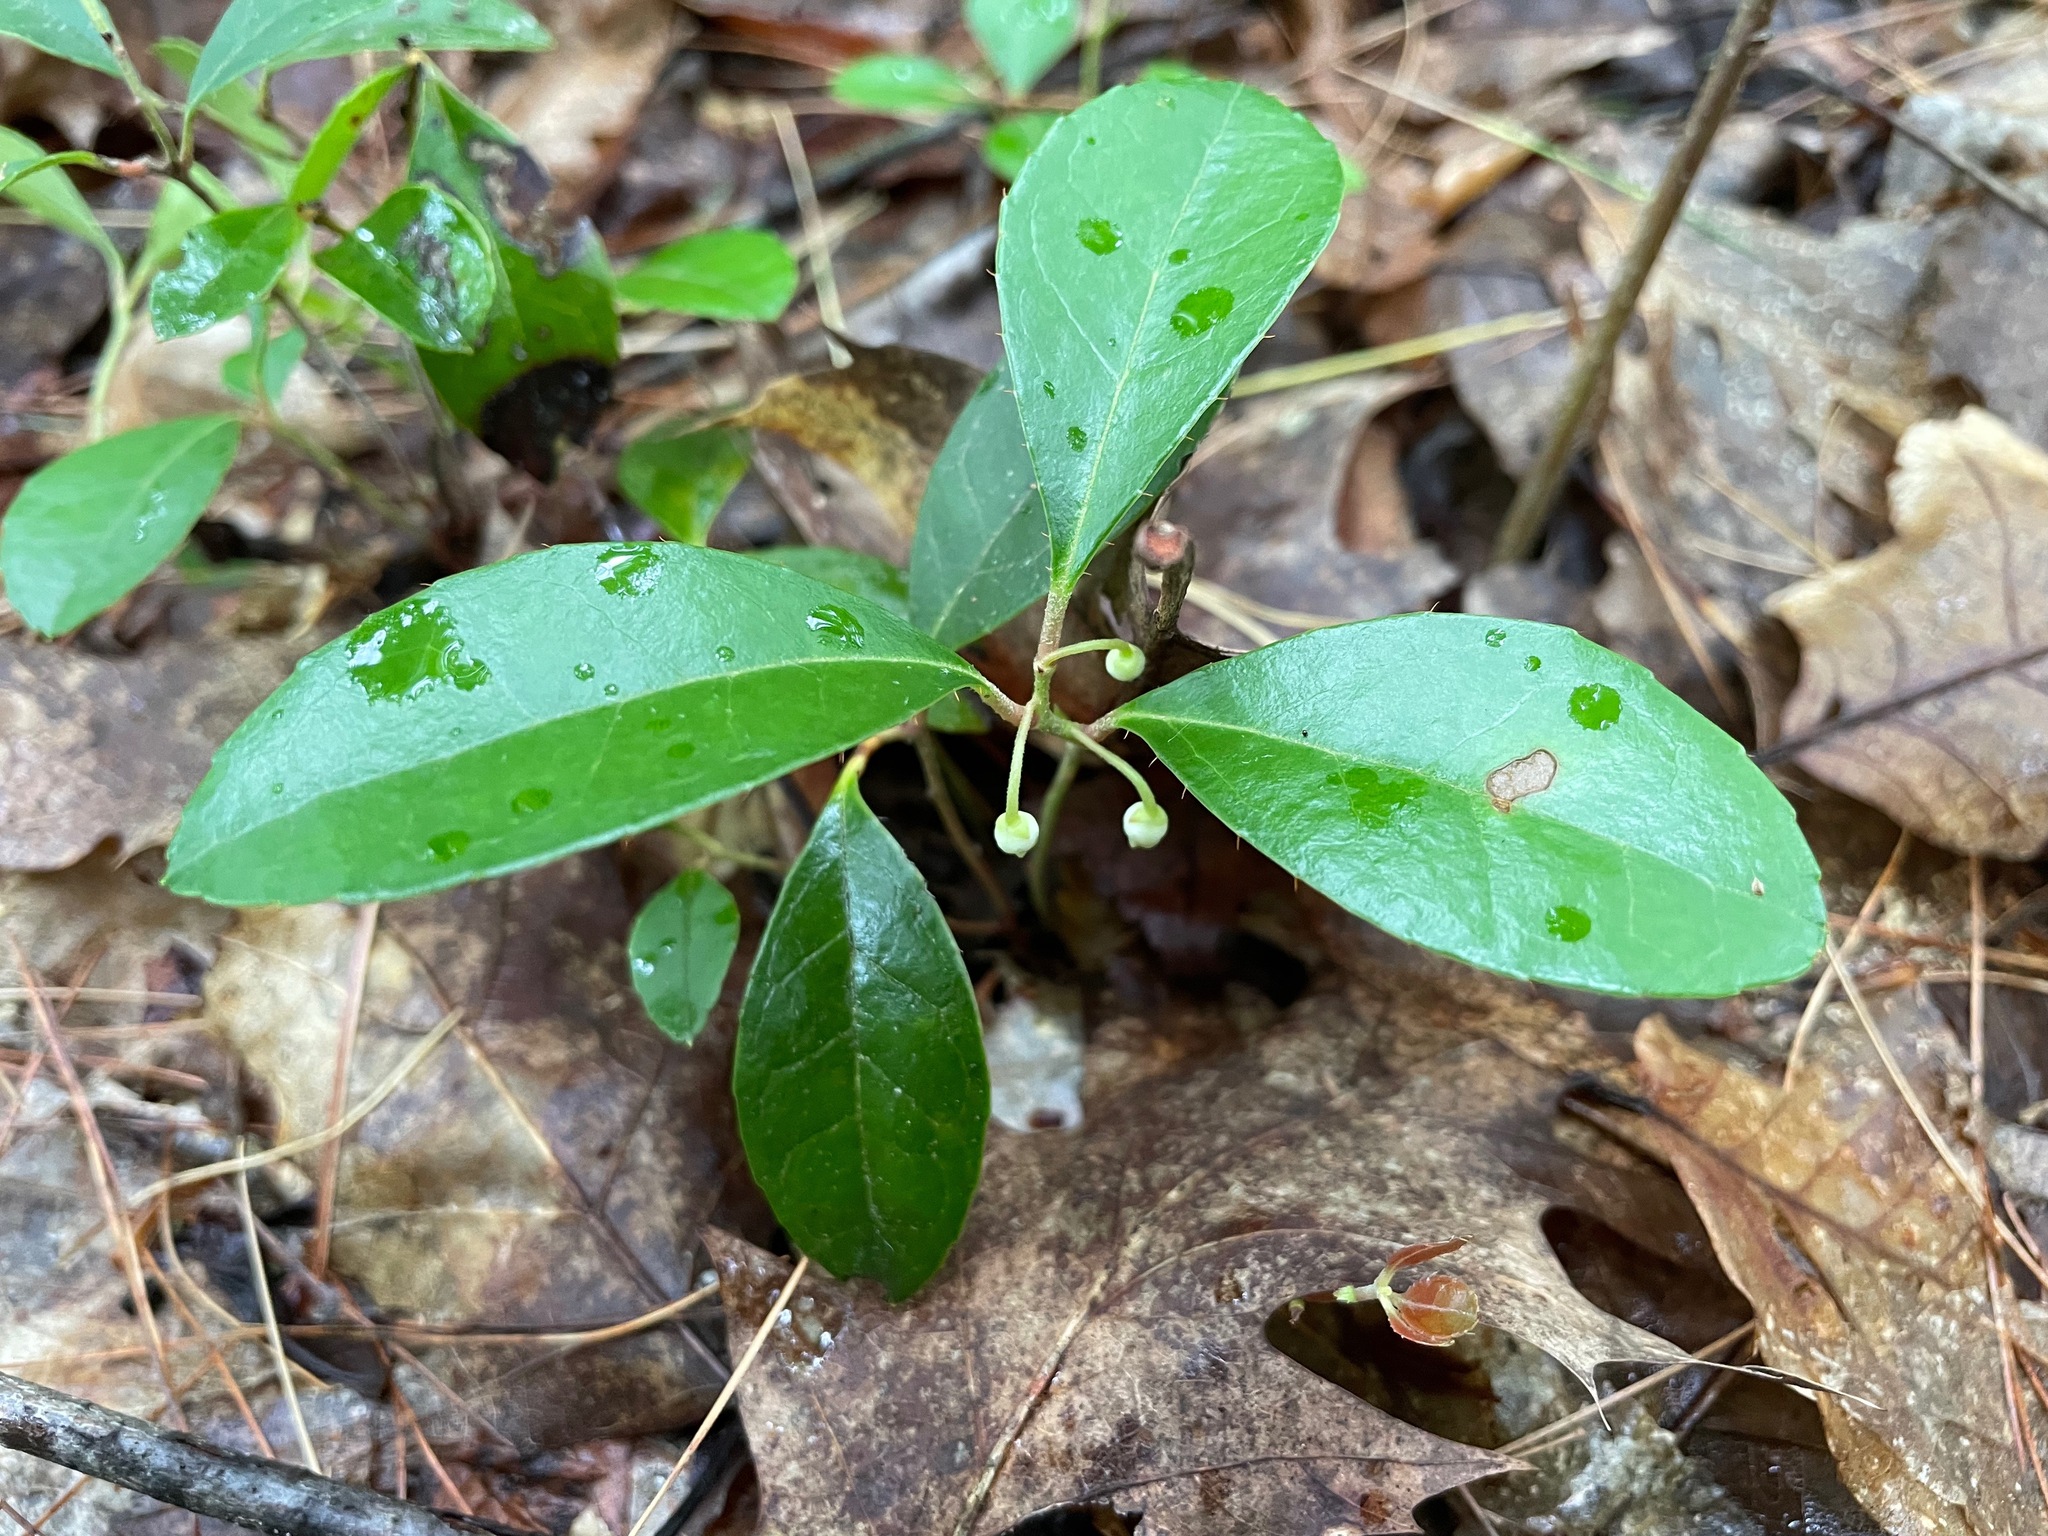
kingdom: Plantae
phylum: Tracheophyta
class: Magnoliopsida
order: Ericales
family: Ericaceae
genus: Gaultheria
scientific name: Gaultheria procumbens
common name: Checkerberry
